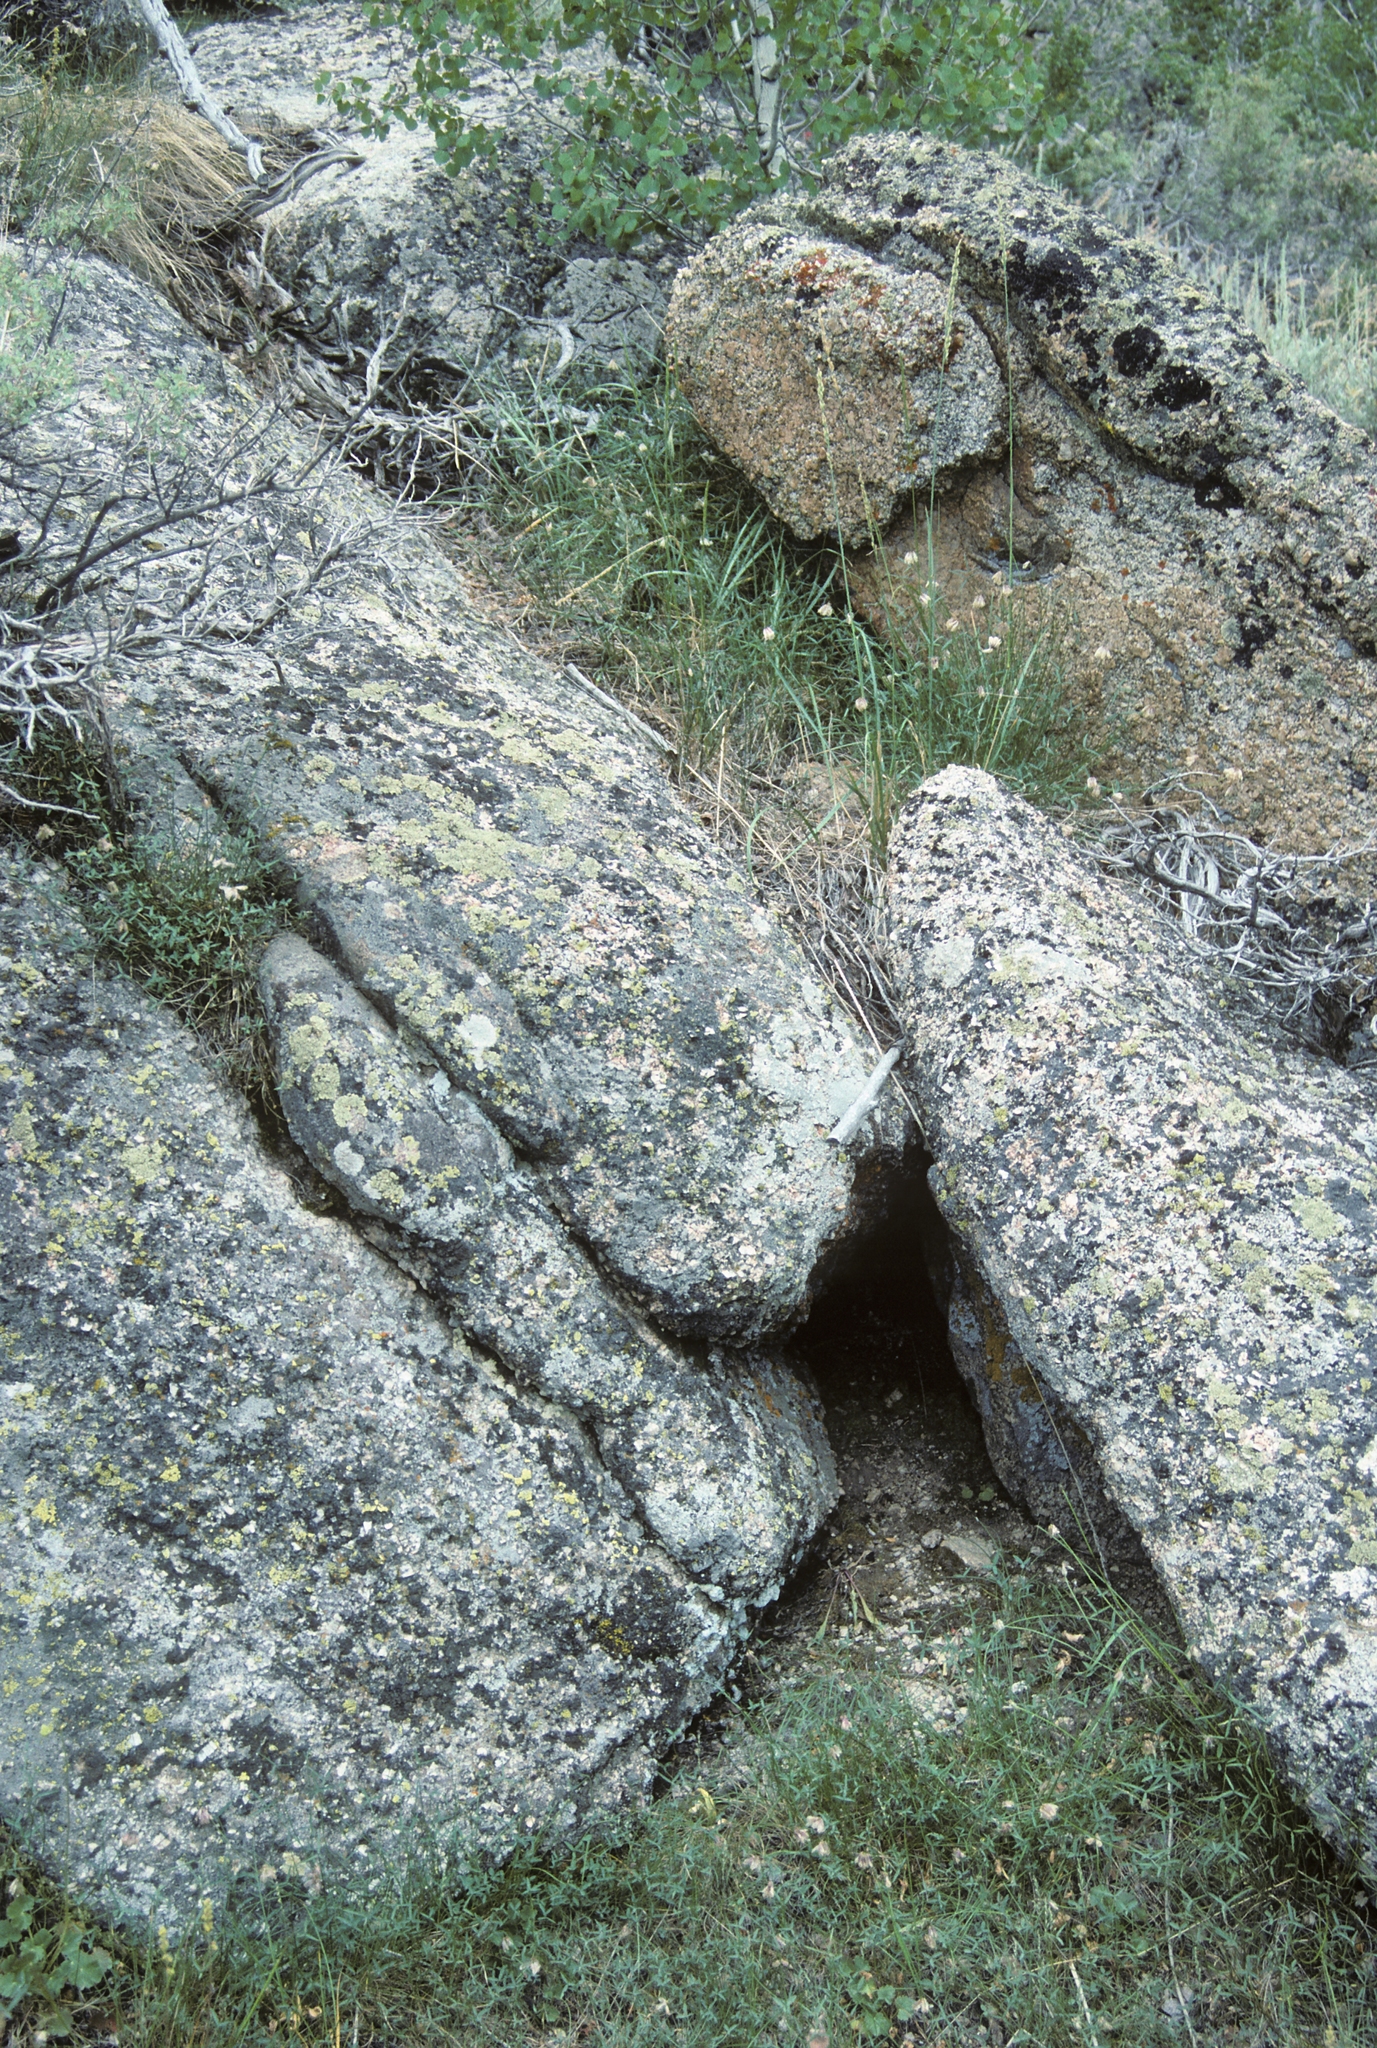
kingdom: Plantae
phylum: Tracheophyta
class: Magnoliopsida
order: Fabales
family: Fabaceae
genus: Trifolium
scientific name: Trifolium dedeckerae
